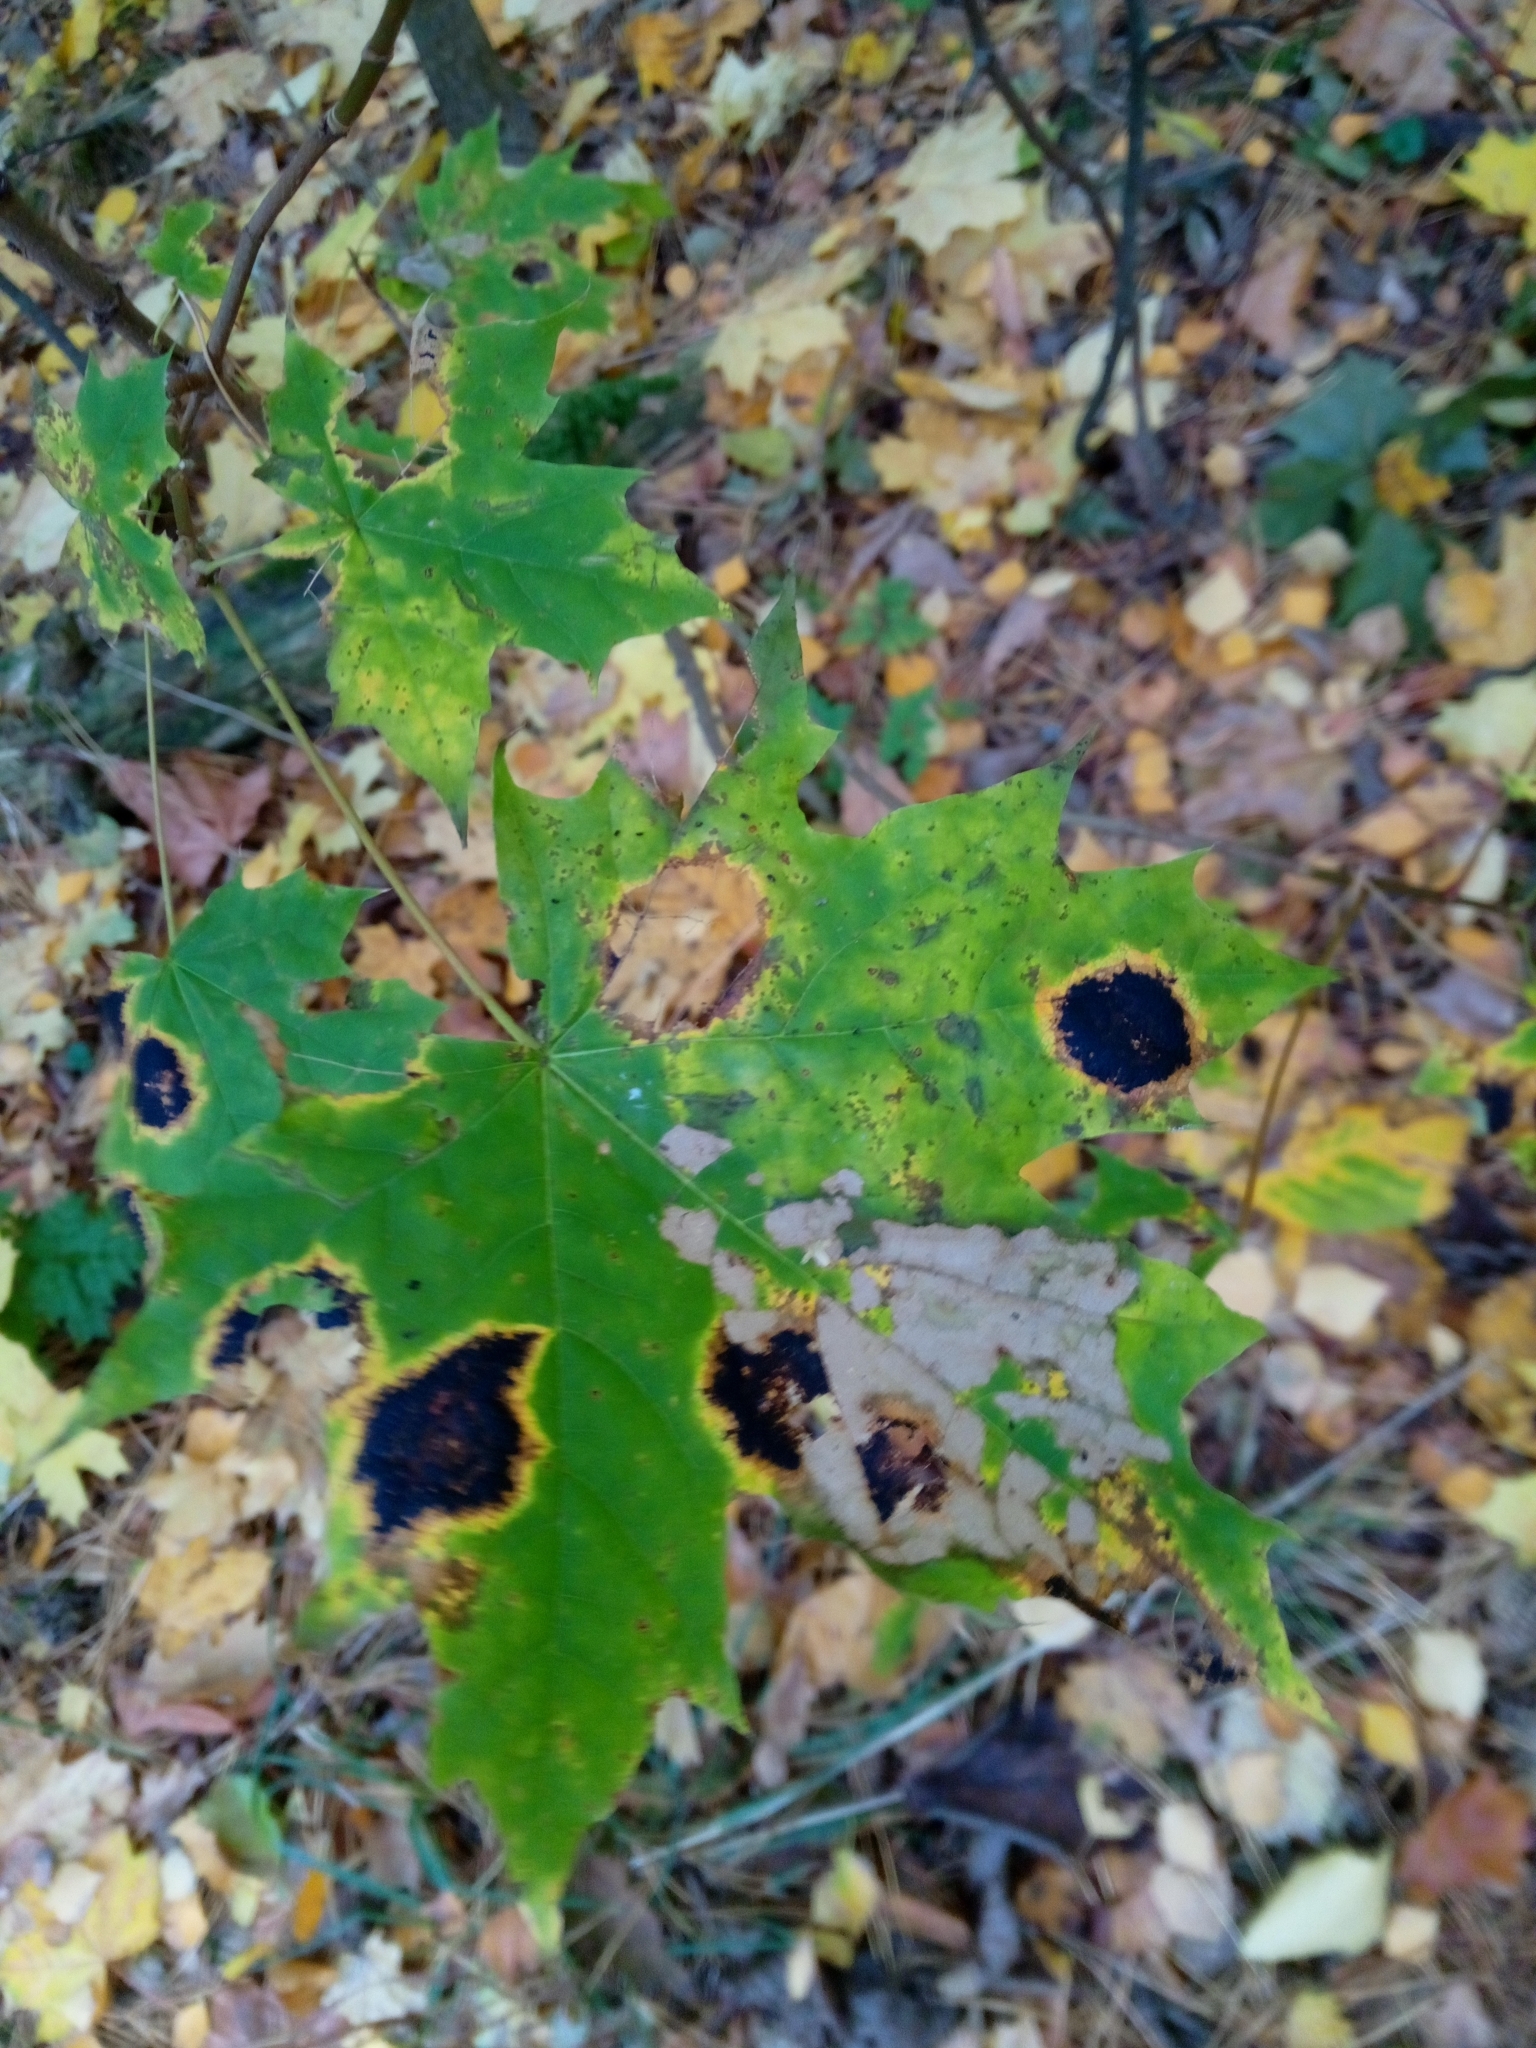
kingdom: Fungi
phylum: Ascomycota
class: Leotiomycetes
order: Rhytismatales
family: Rhytismataceae
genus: Rhytisma
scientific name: Rhytisma acerinum
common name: European tar spot
